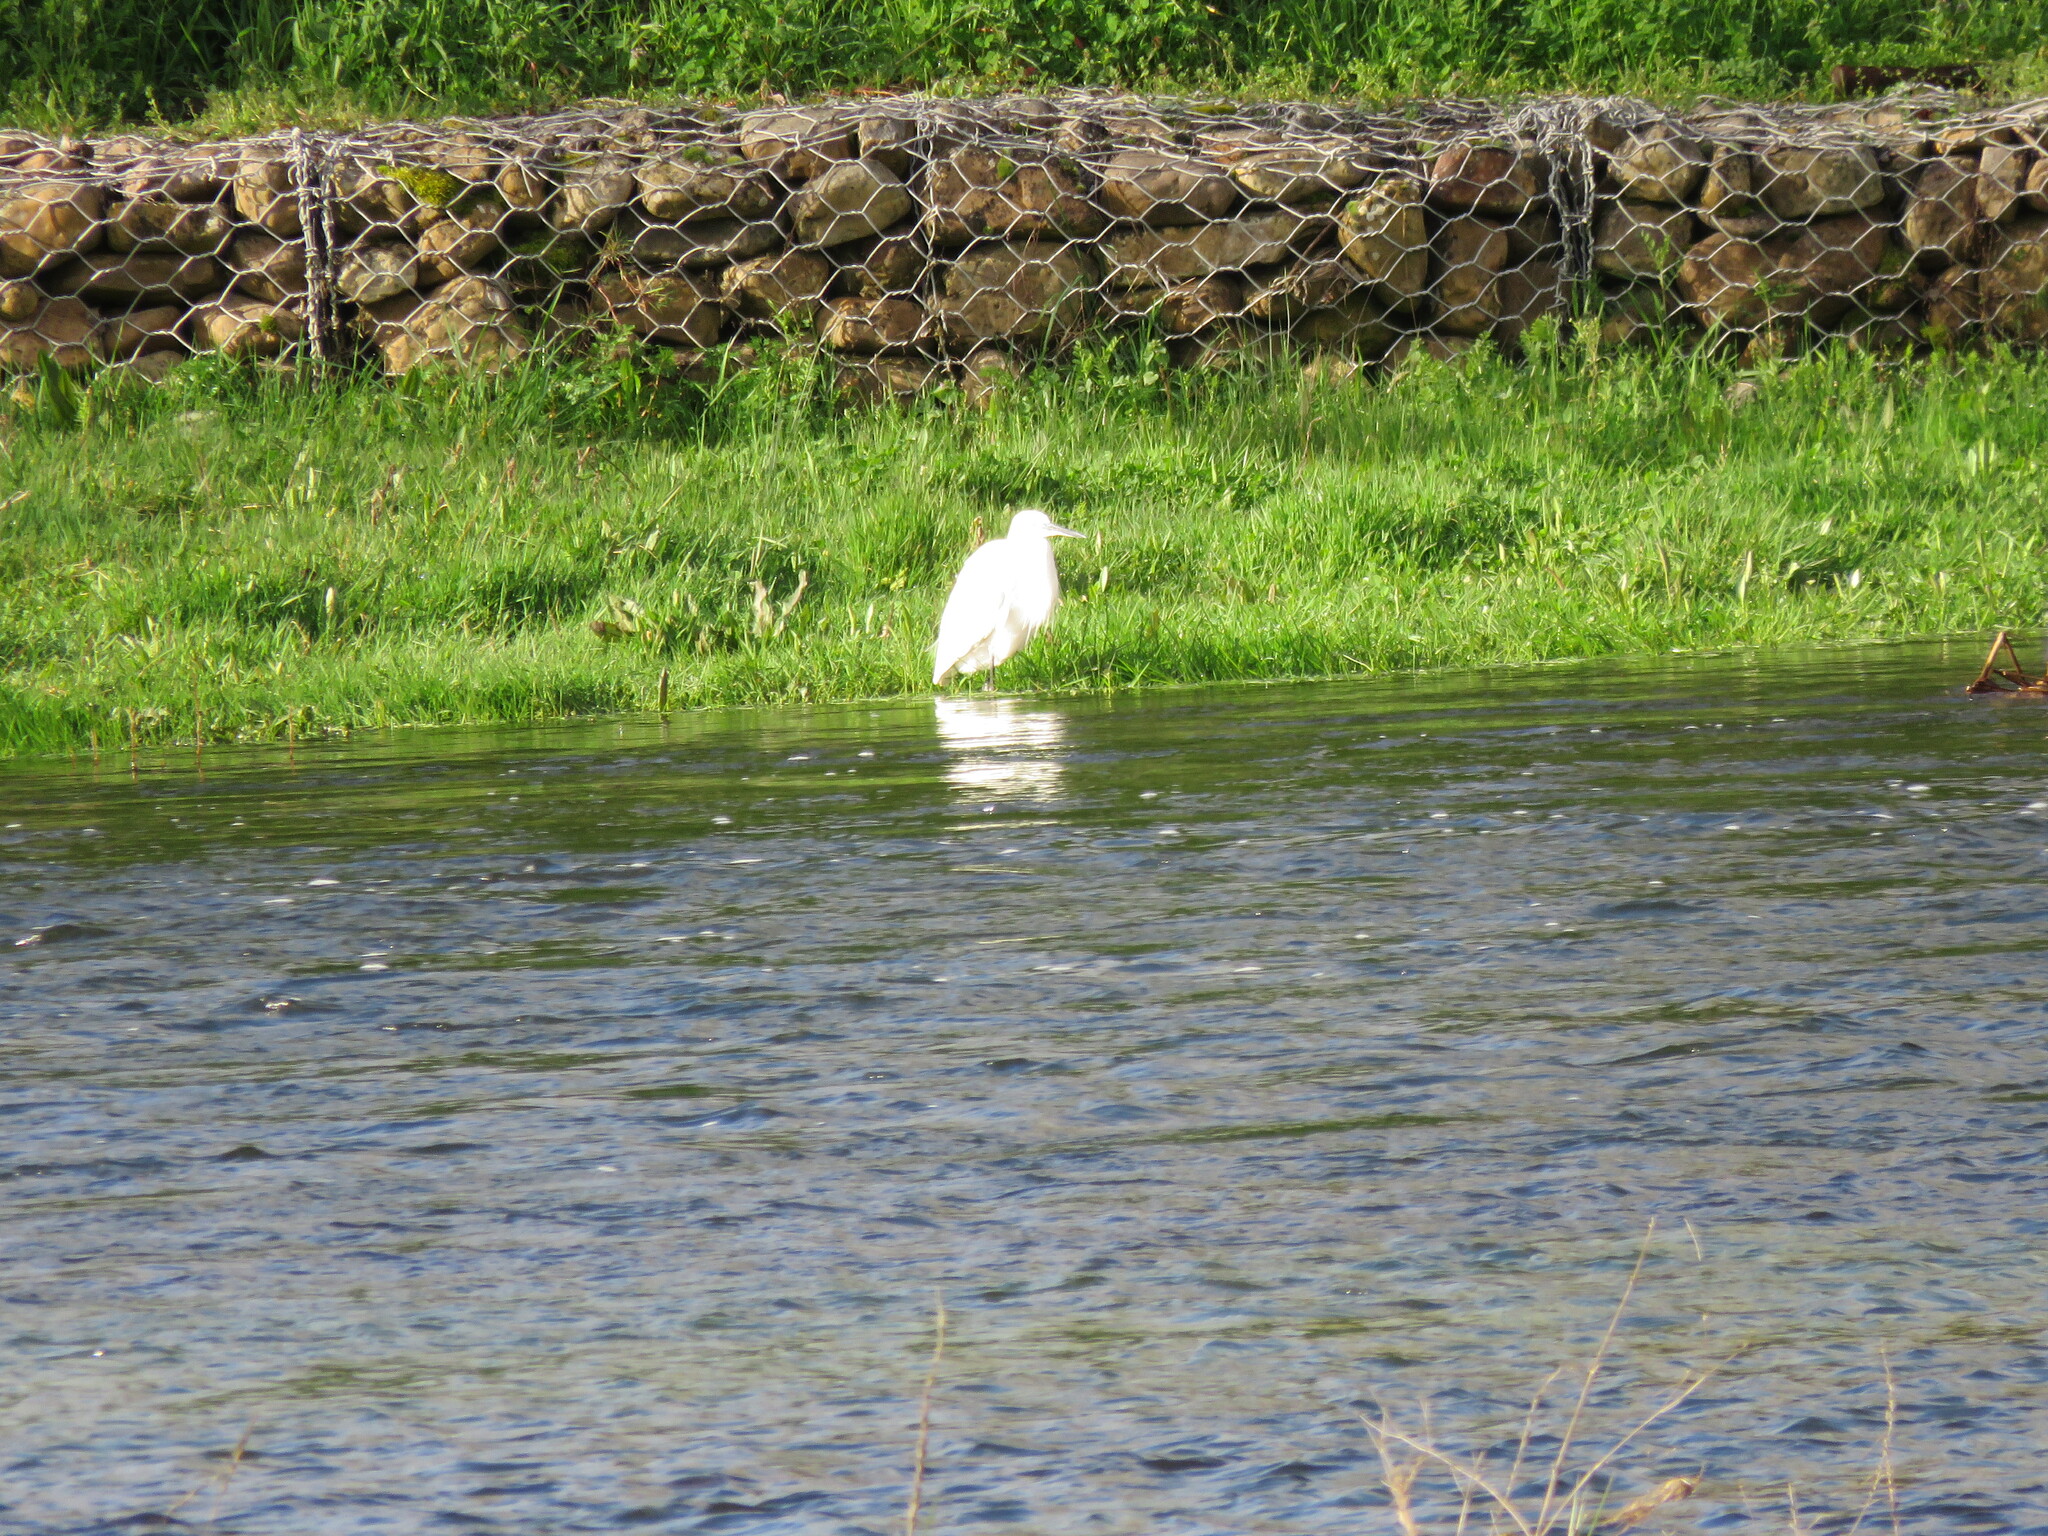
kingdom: Animalia
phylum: Chordata
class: Aves
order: Pelecaniformes
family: Ardeidae
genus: Bubulcus
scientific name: Bubulcus ibis
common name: Cattle egret
